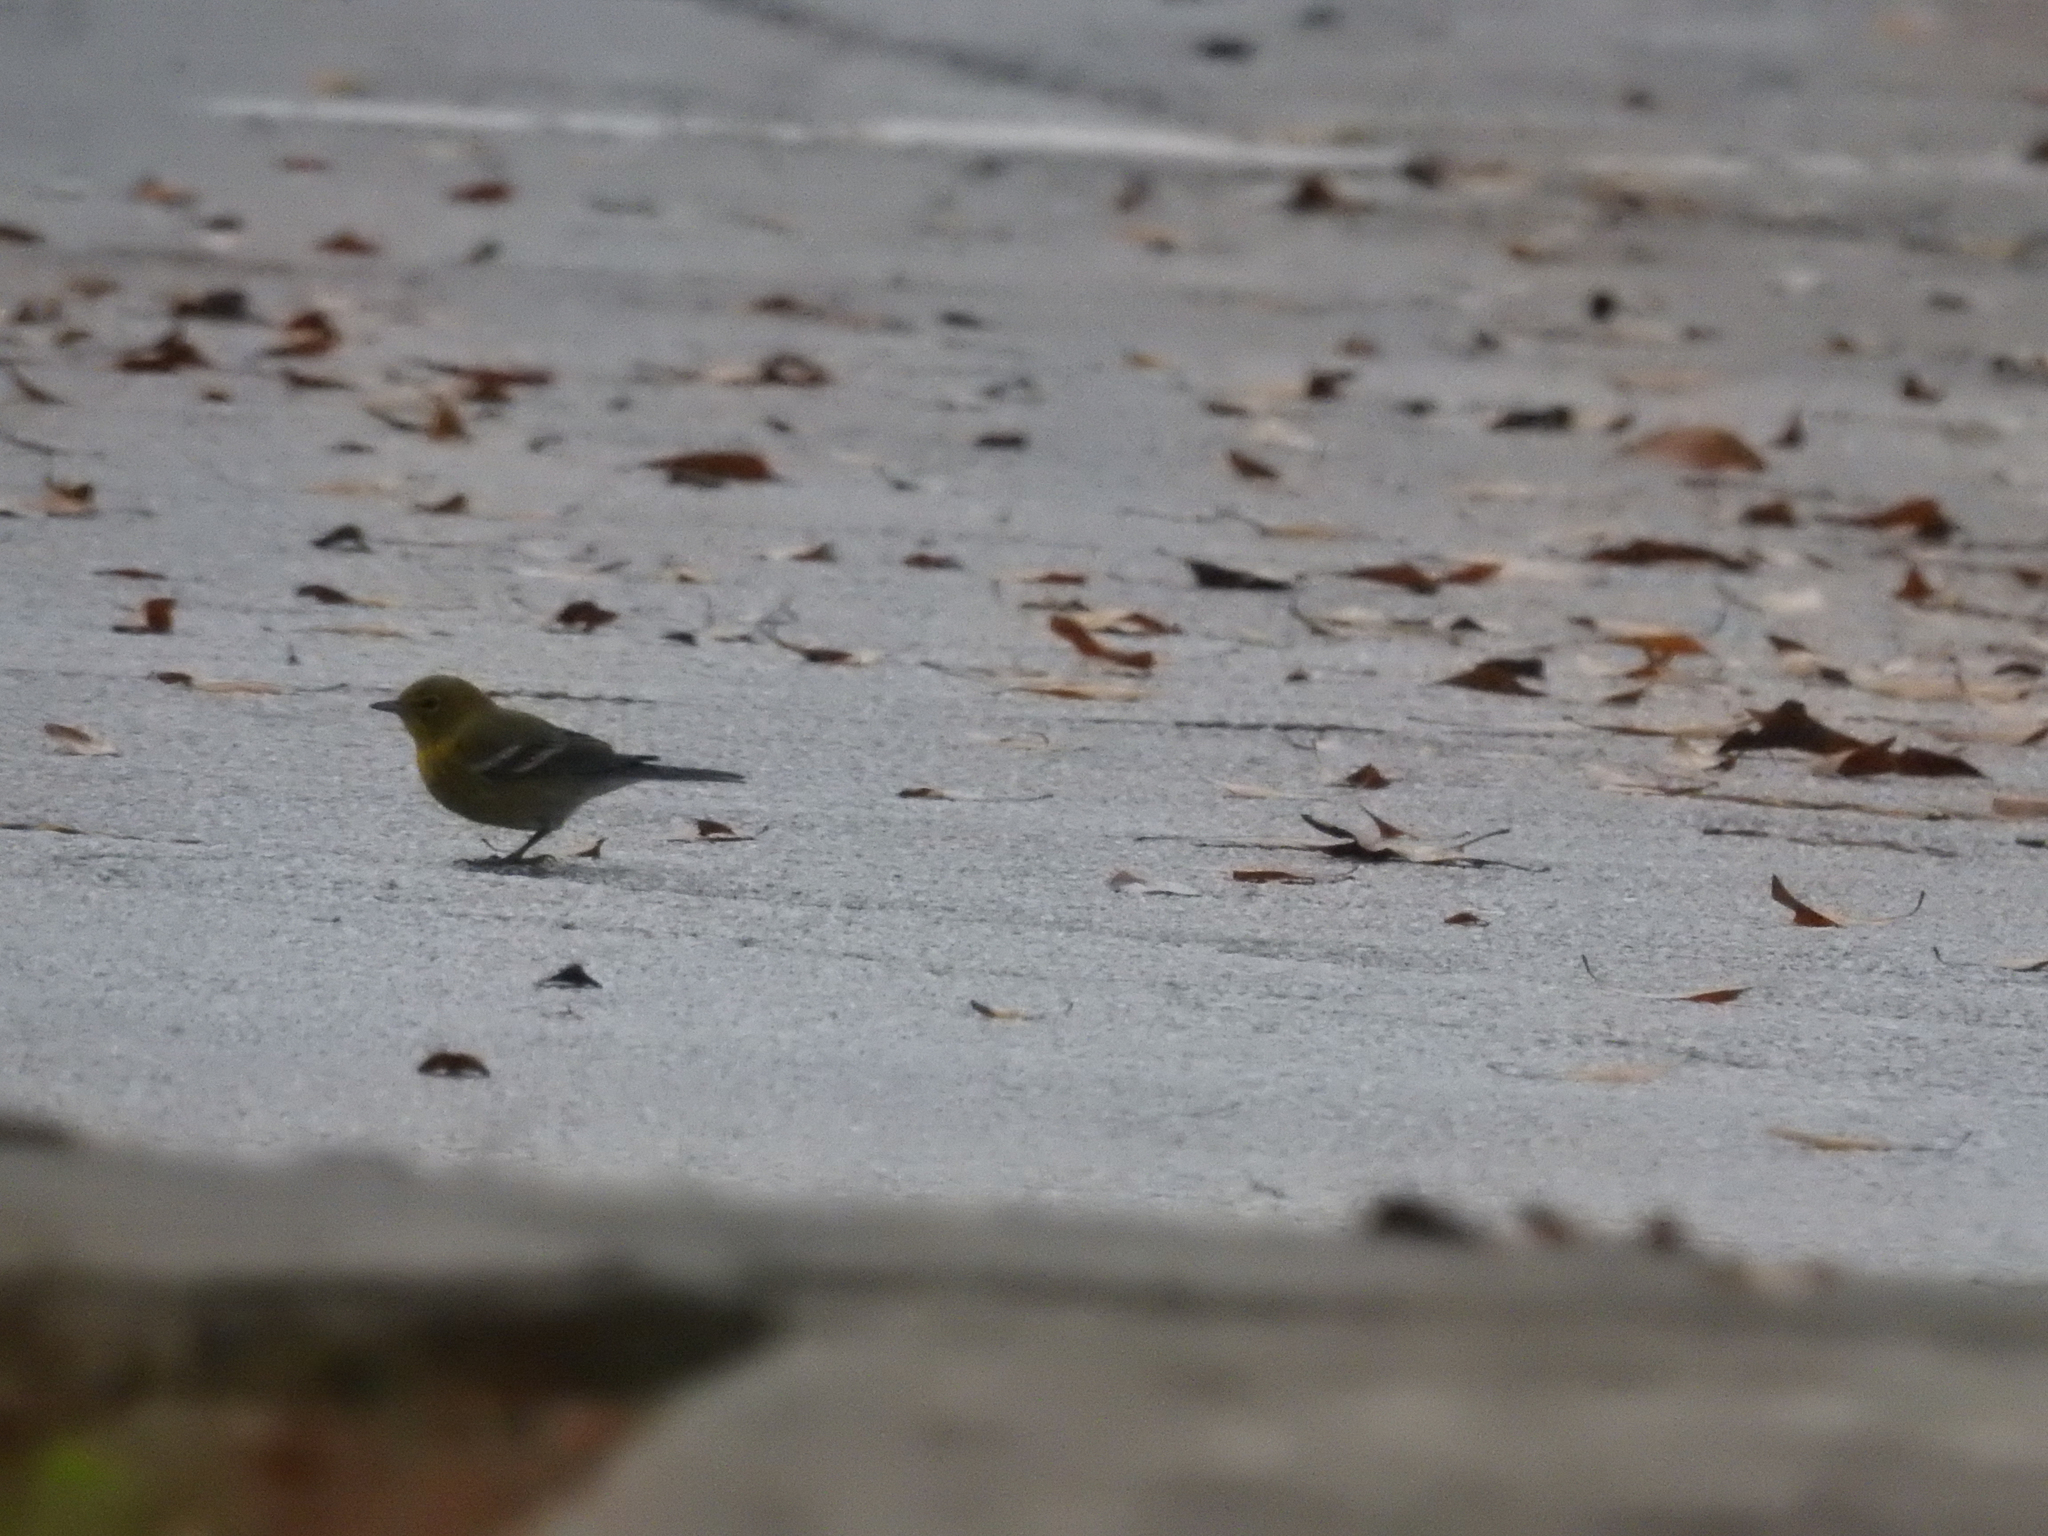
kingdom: Animalia
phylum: Chordata
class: Aves
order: Passeriformes
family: Parulidae
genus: Setophaga
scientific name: Setophaga pinus
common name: Pine warbler
